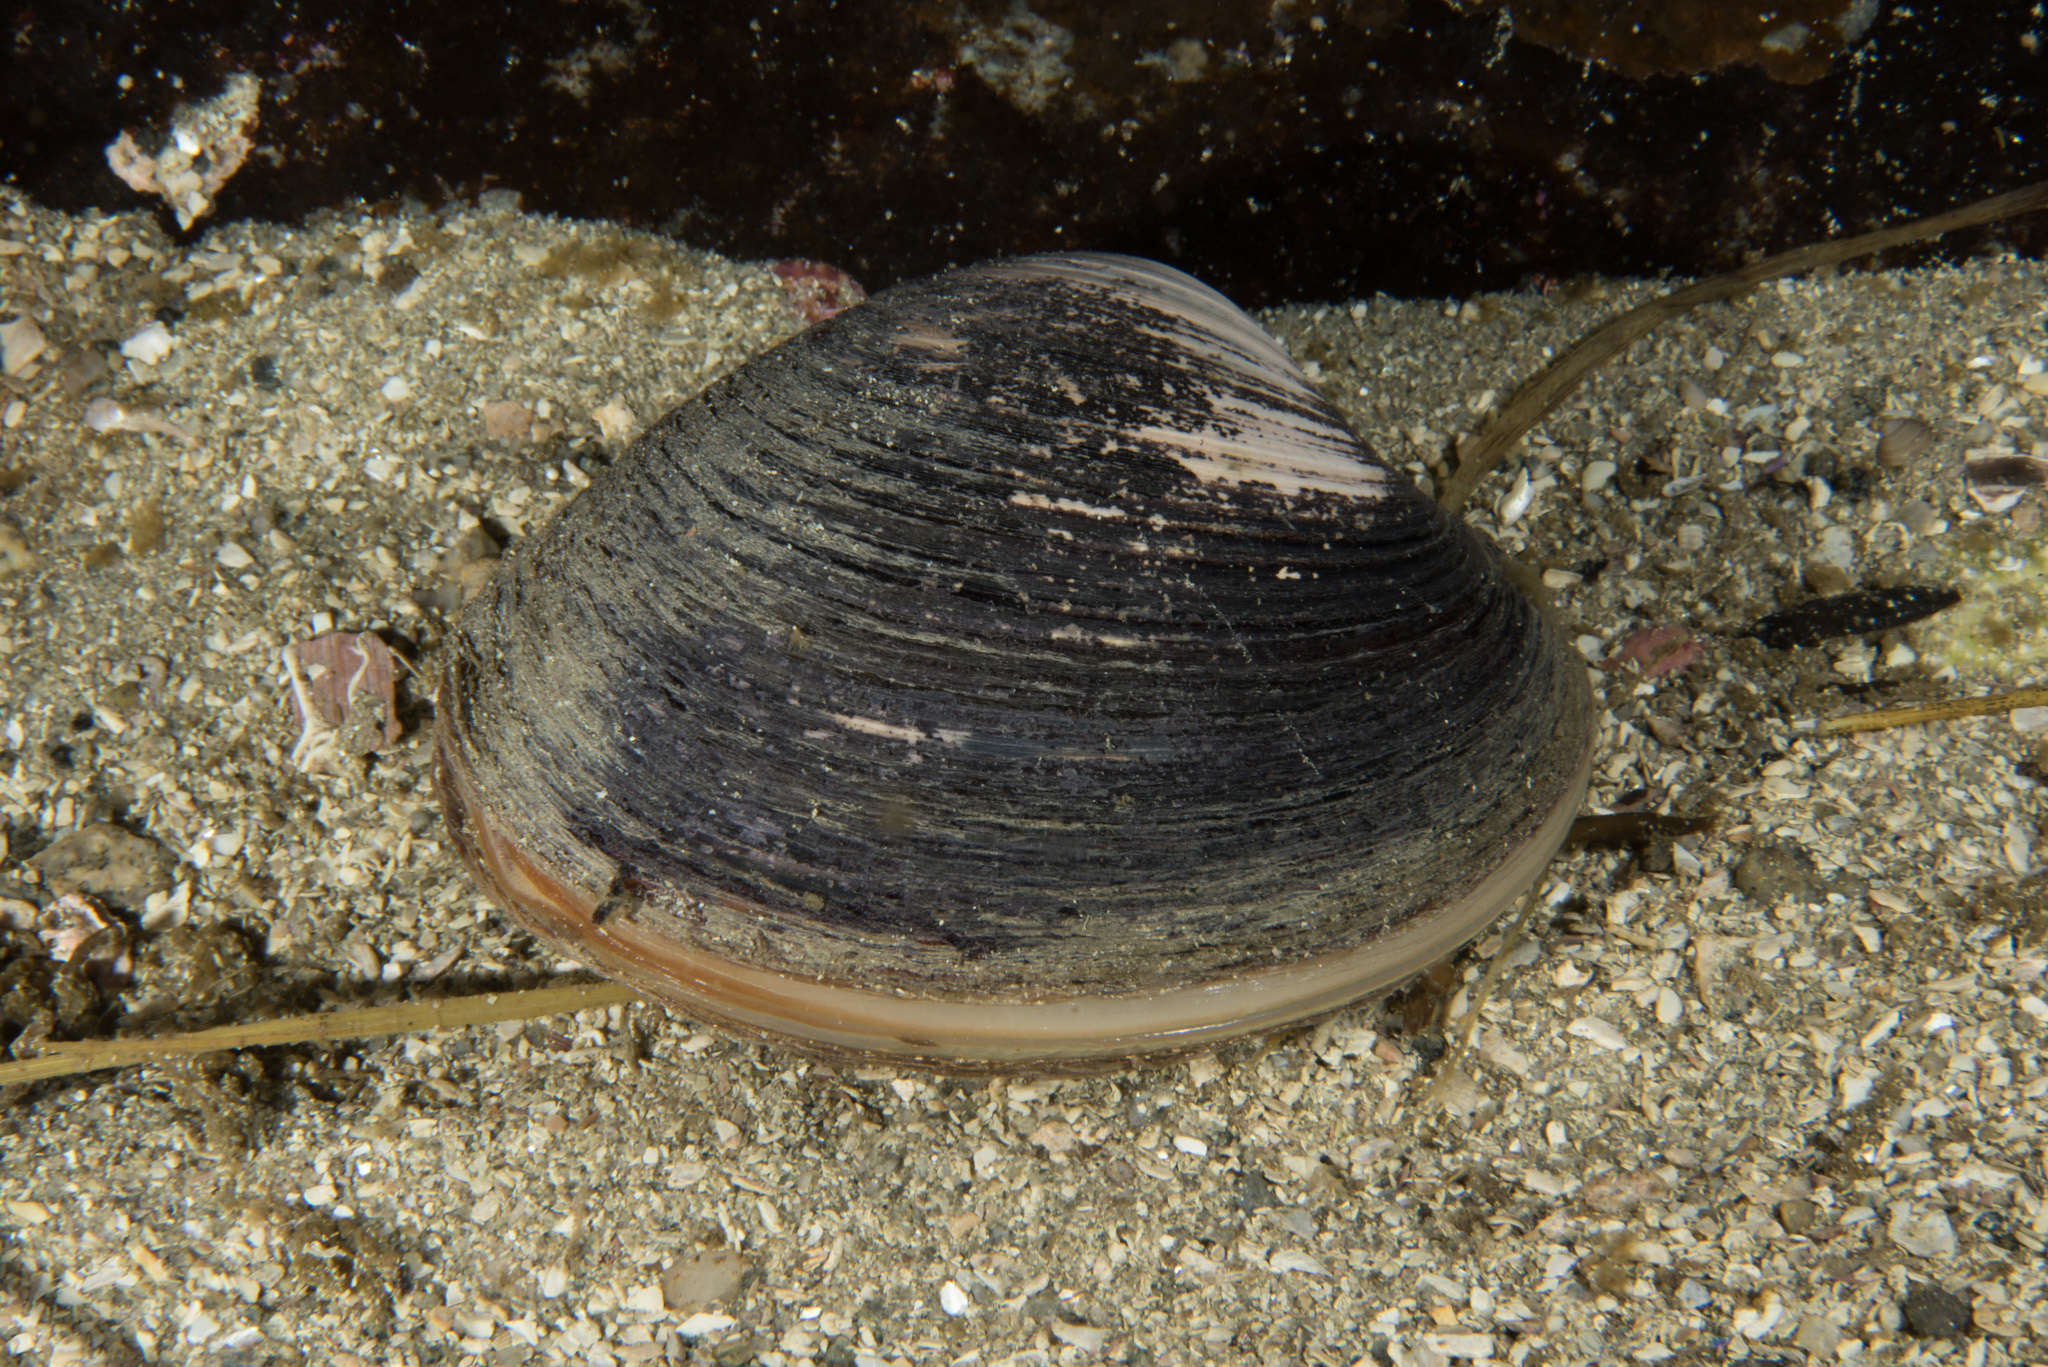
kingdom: Animalia
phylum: Mollusca
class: Bivalvia
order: Venerida
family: Arcticidae
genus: Arctica
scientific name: Arctica islandica
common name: Icelandic cyprine
